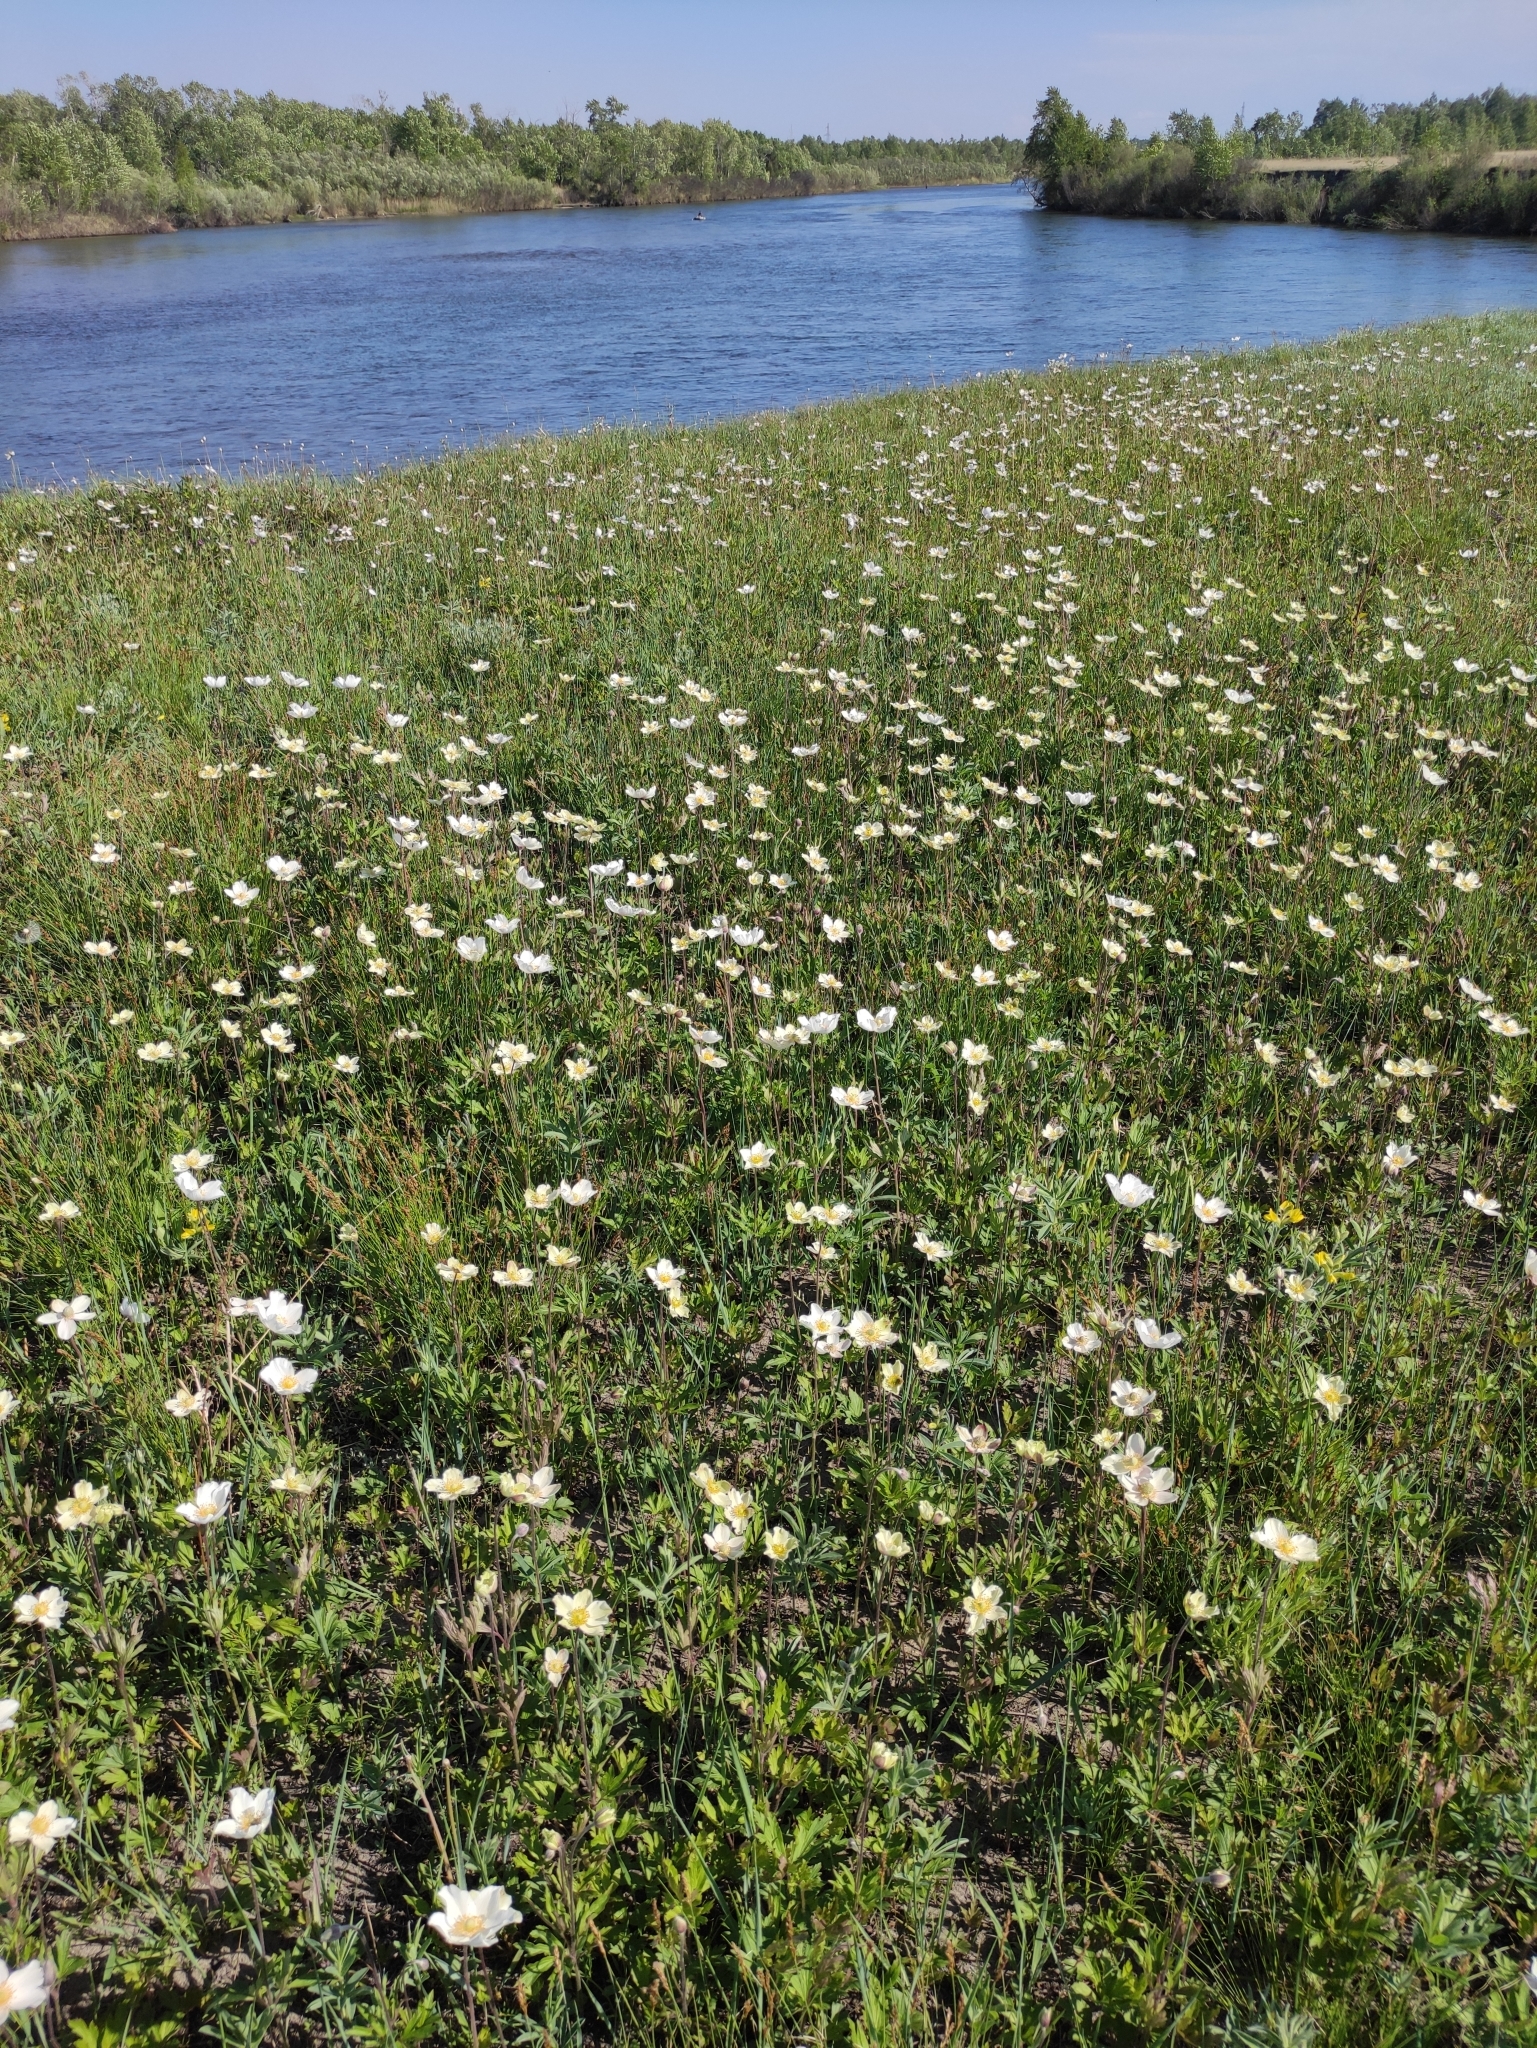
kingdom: Plantae
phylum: Tracheophyta
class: Magnoliopsida
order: Ranunculales
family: Ranunculaceae
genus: Anemone
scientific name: Anemone sylvestris
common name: Snowdrop anemone
